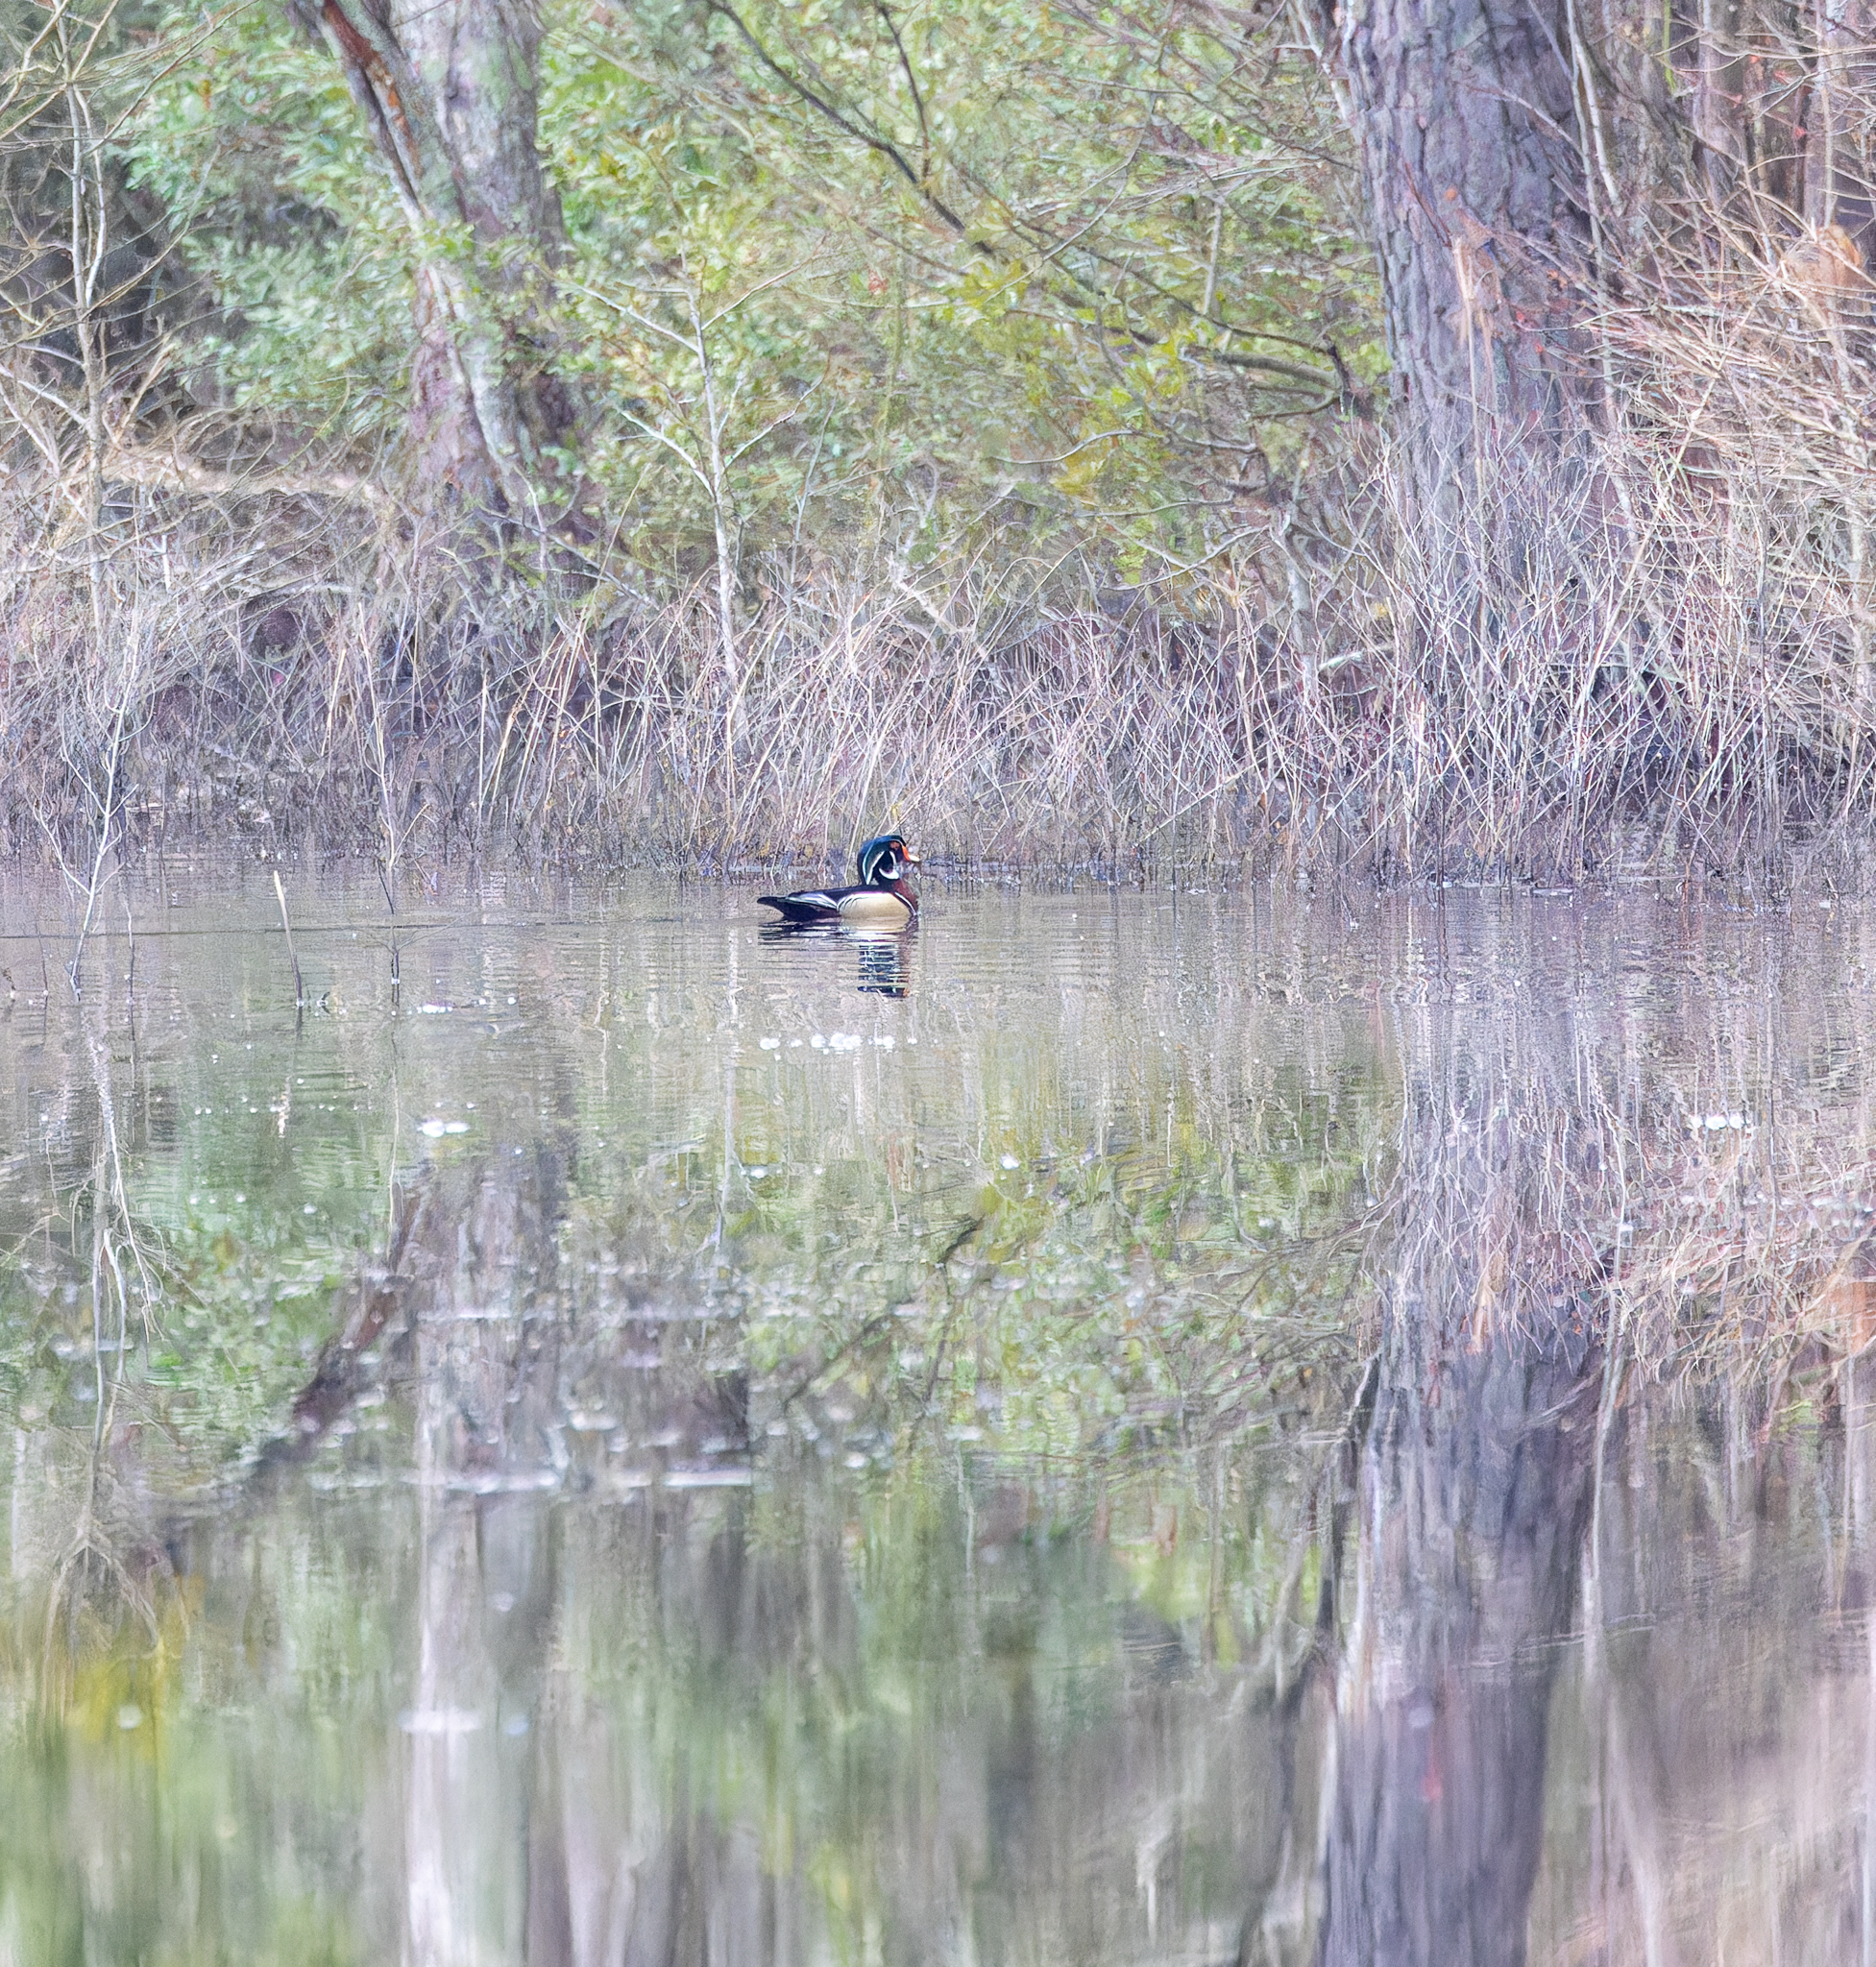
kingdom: Animalia
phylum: Chordata
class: Aves
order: Anseriformes
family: Anatidae
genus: Aix
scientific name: Aix sponsa
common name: Wood duck
